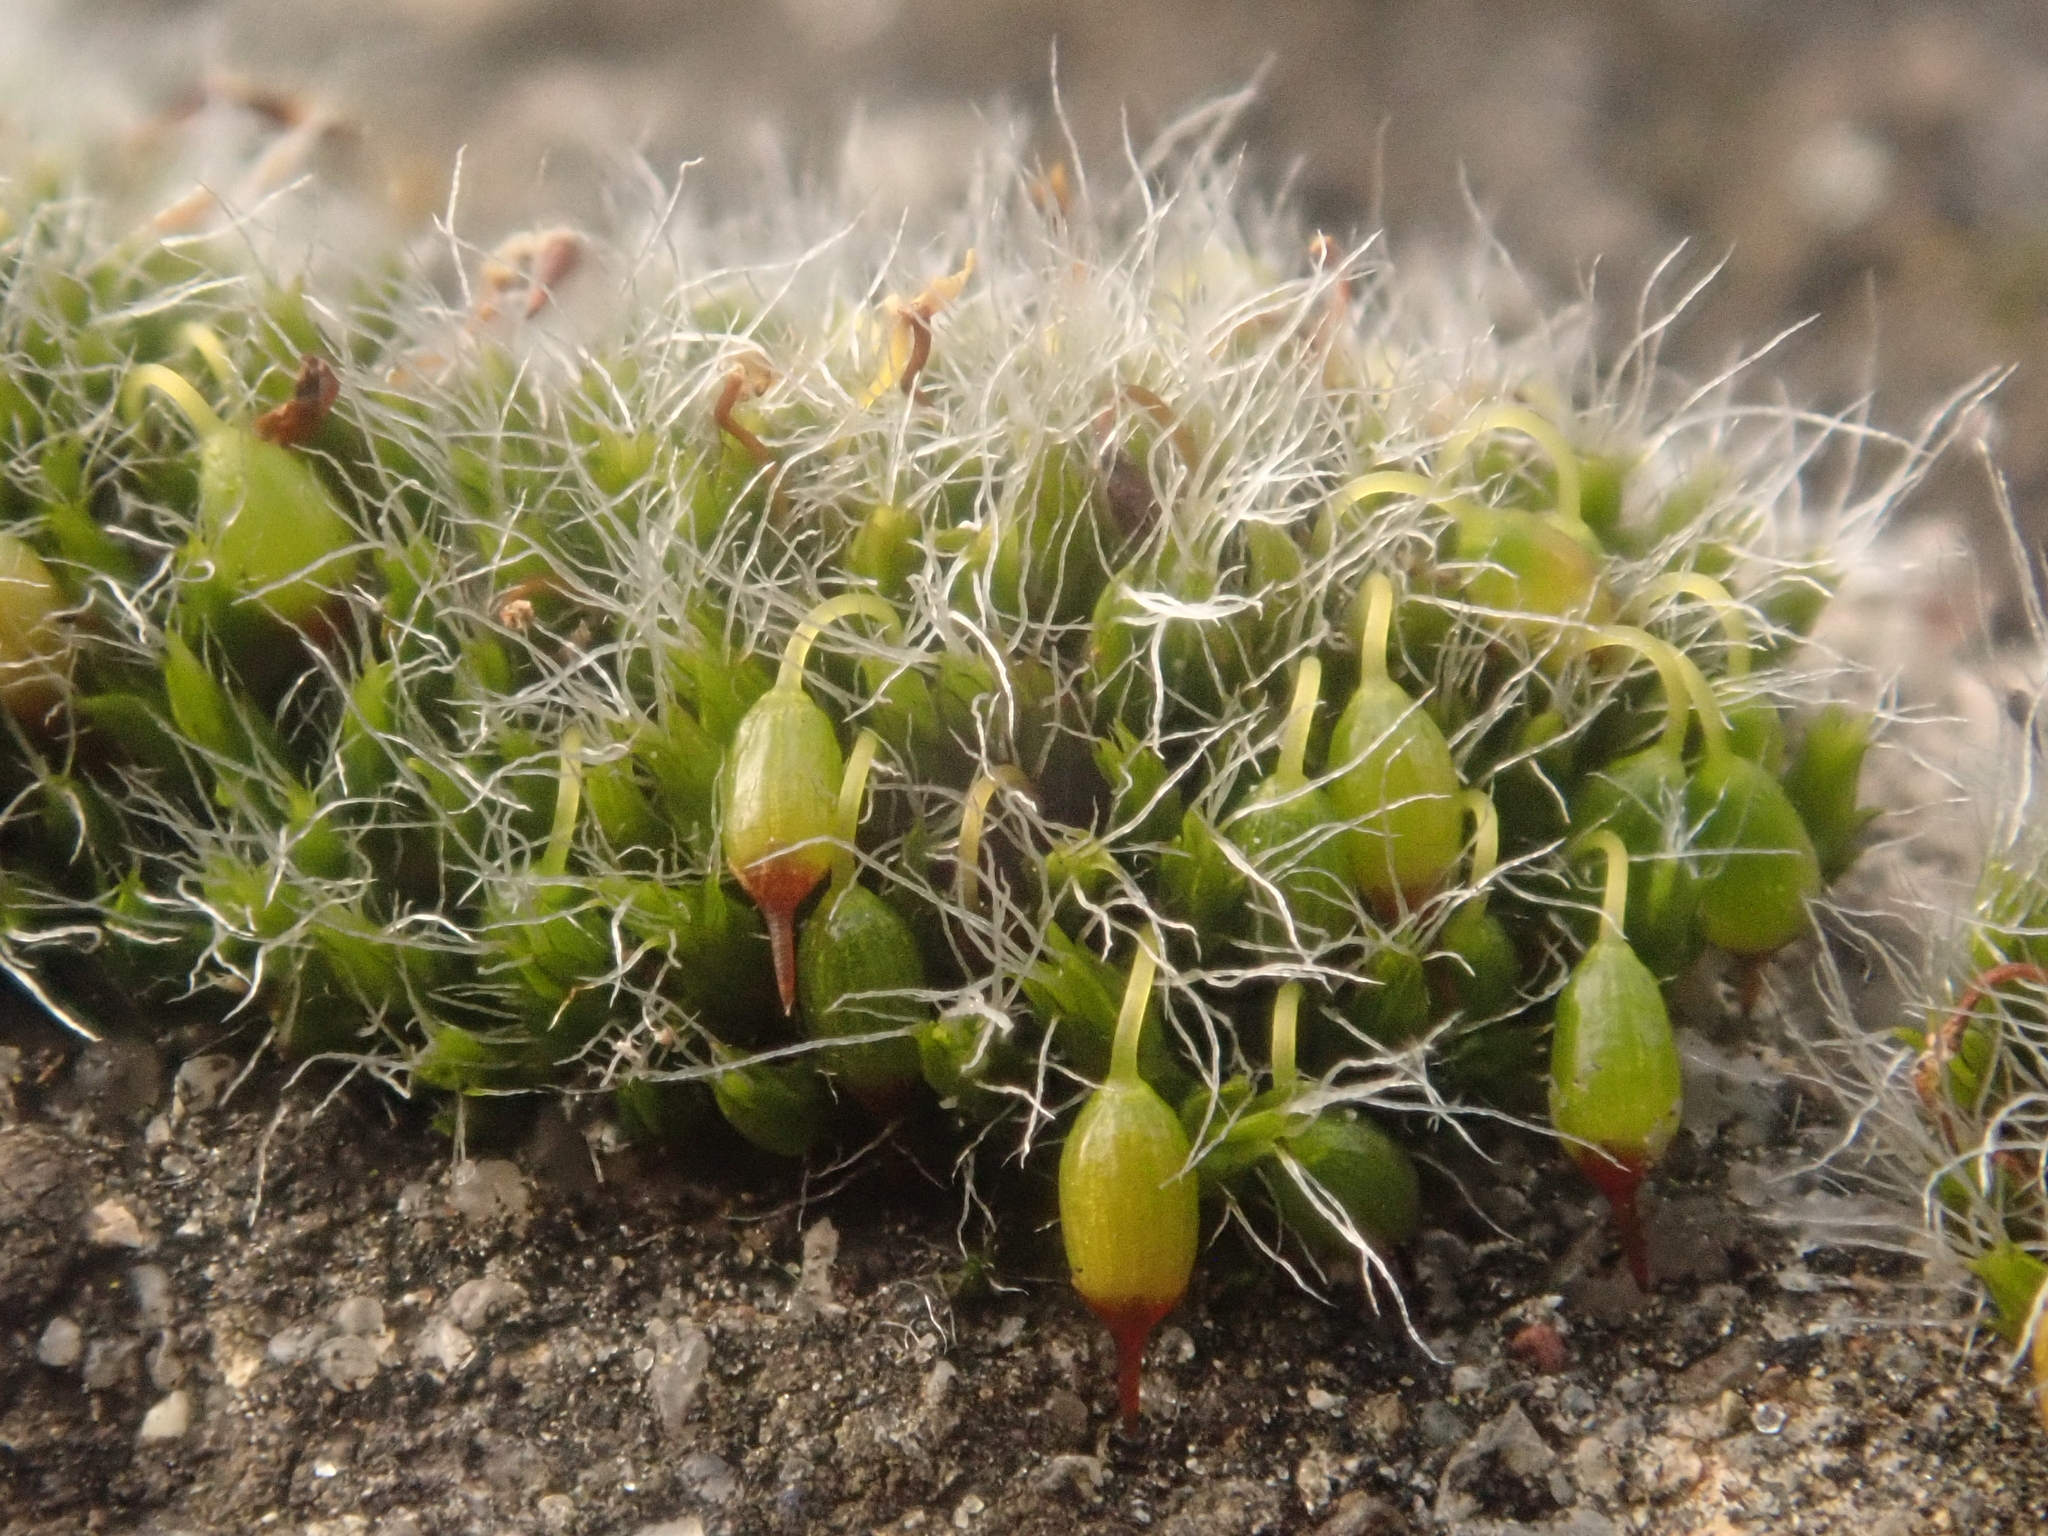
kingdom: Plantae
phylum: Bryophyta
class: Bryopsida
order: Grimmiales
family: Grimmiaceae
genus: Grimmia
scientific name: Grimmia pulvinata
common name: Grey-cushioned grimmia
